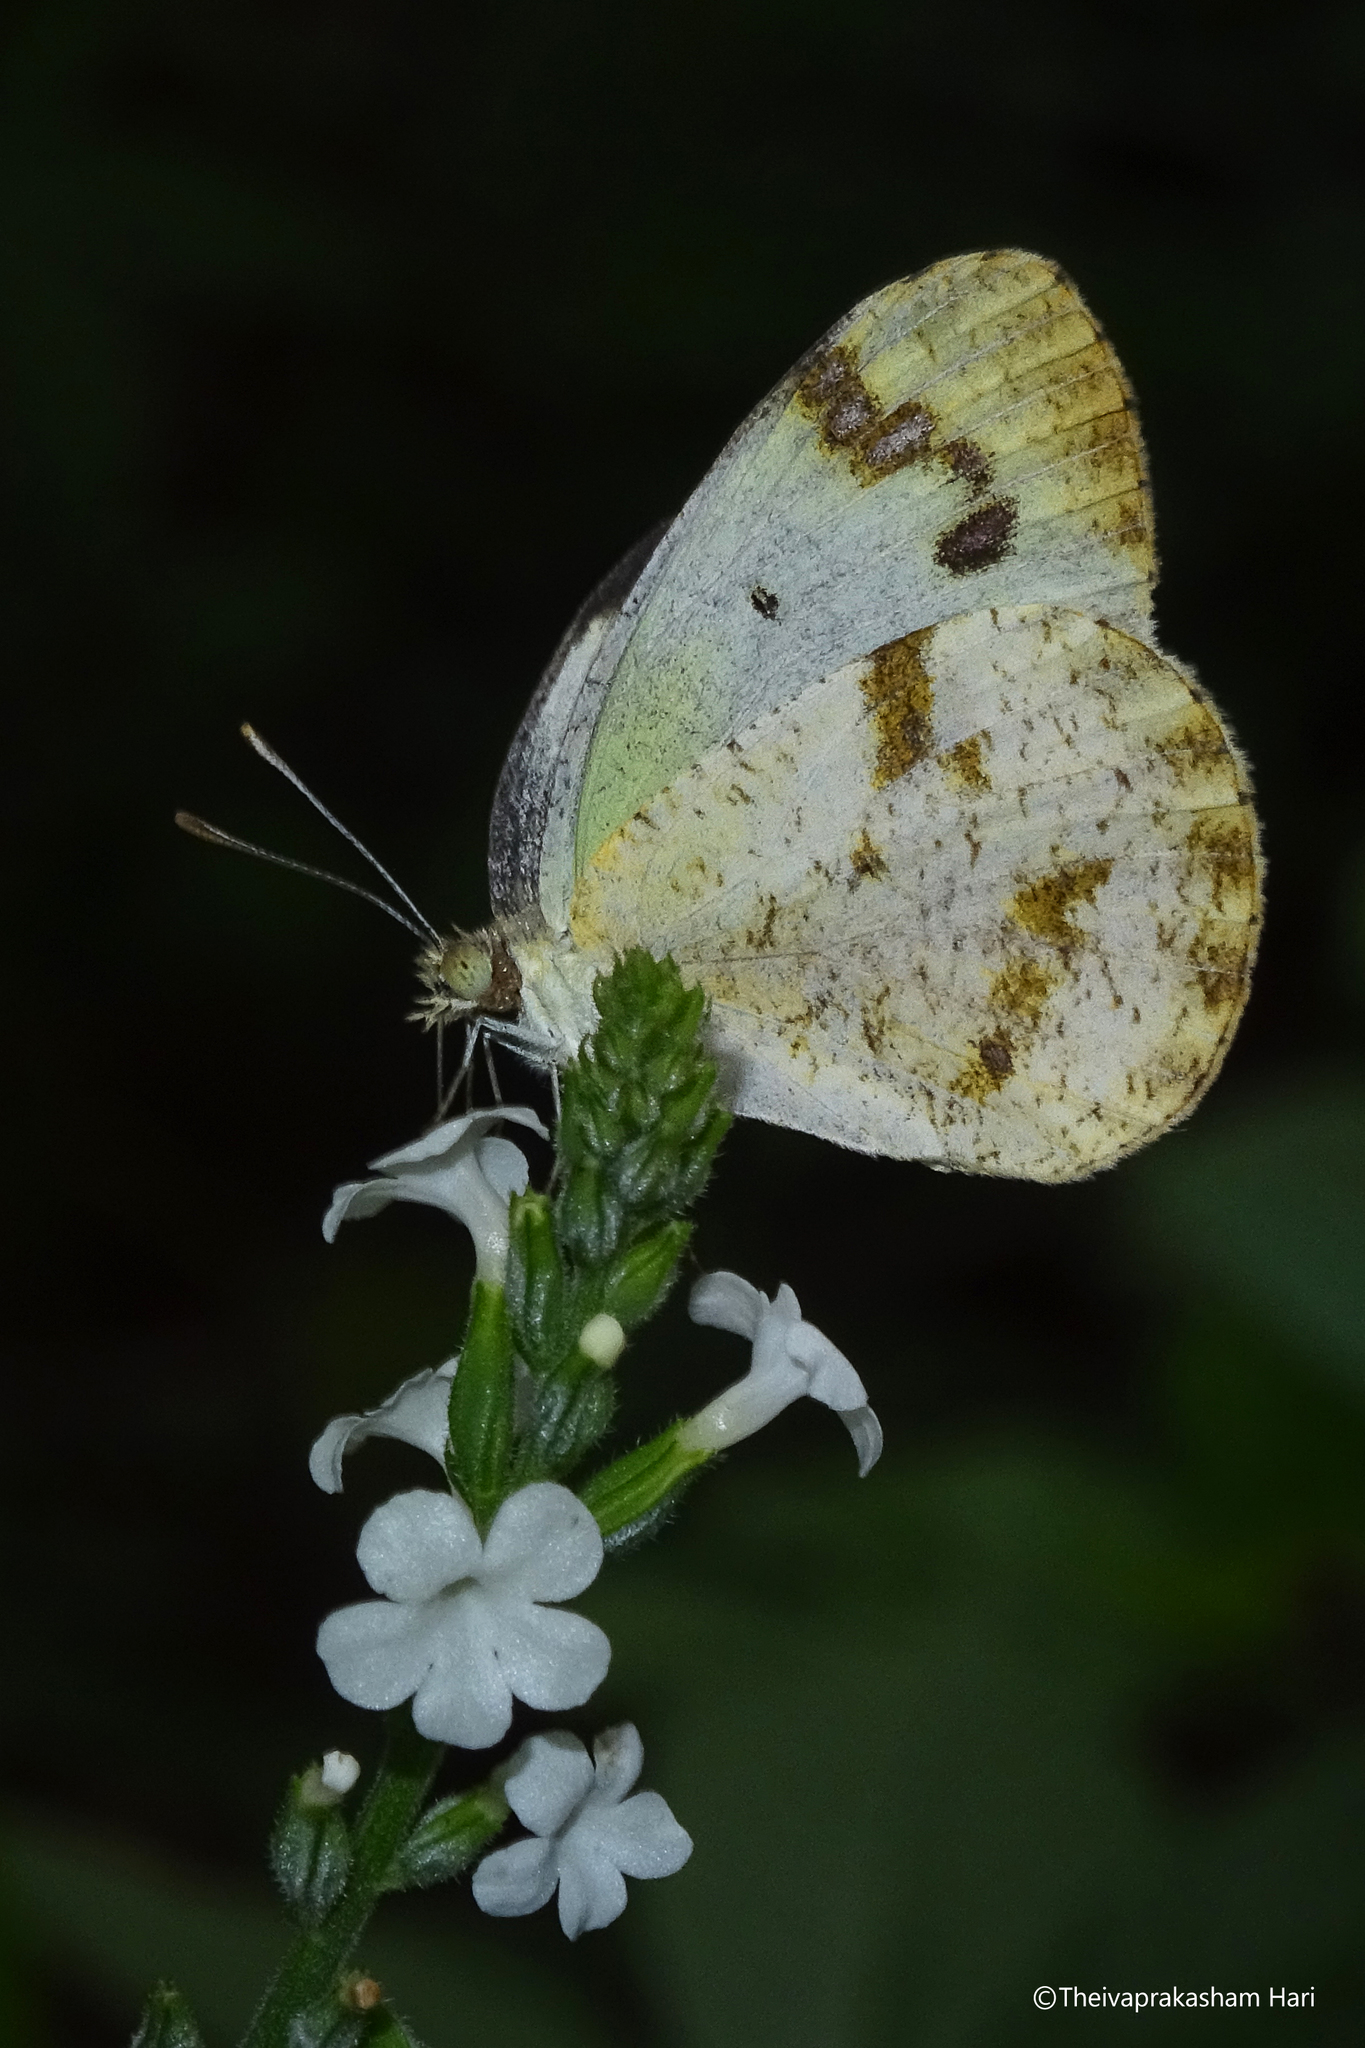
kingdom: Animalia
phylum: Arthropoda
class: Insecta
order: Lepidoptera
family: Pieridae
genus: Colotis
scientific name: Colotis aurora
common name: Plain orange-tip
